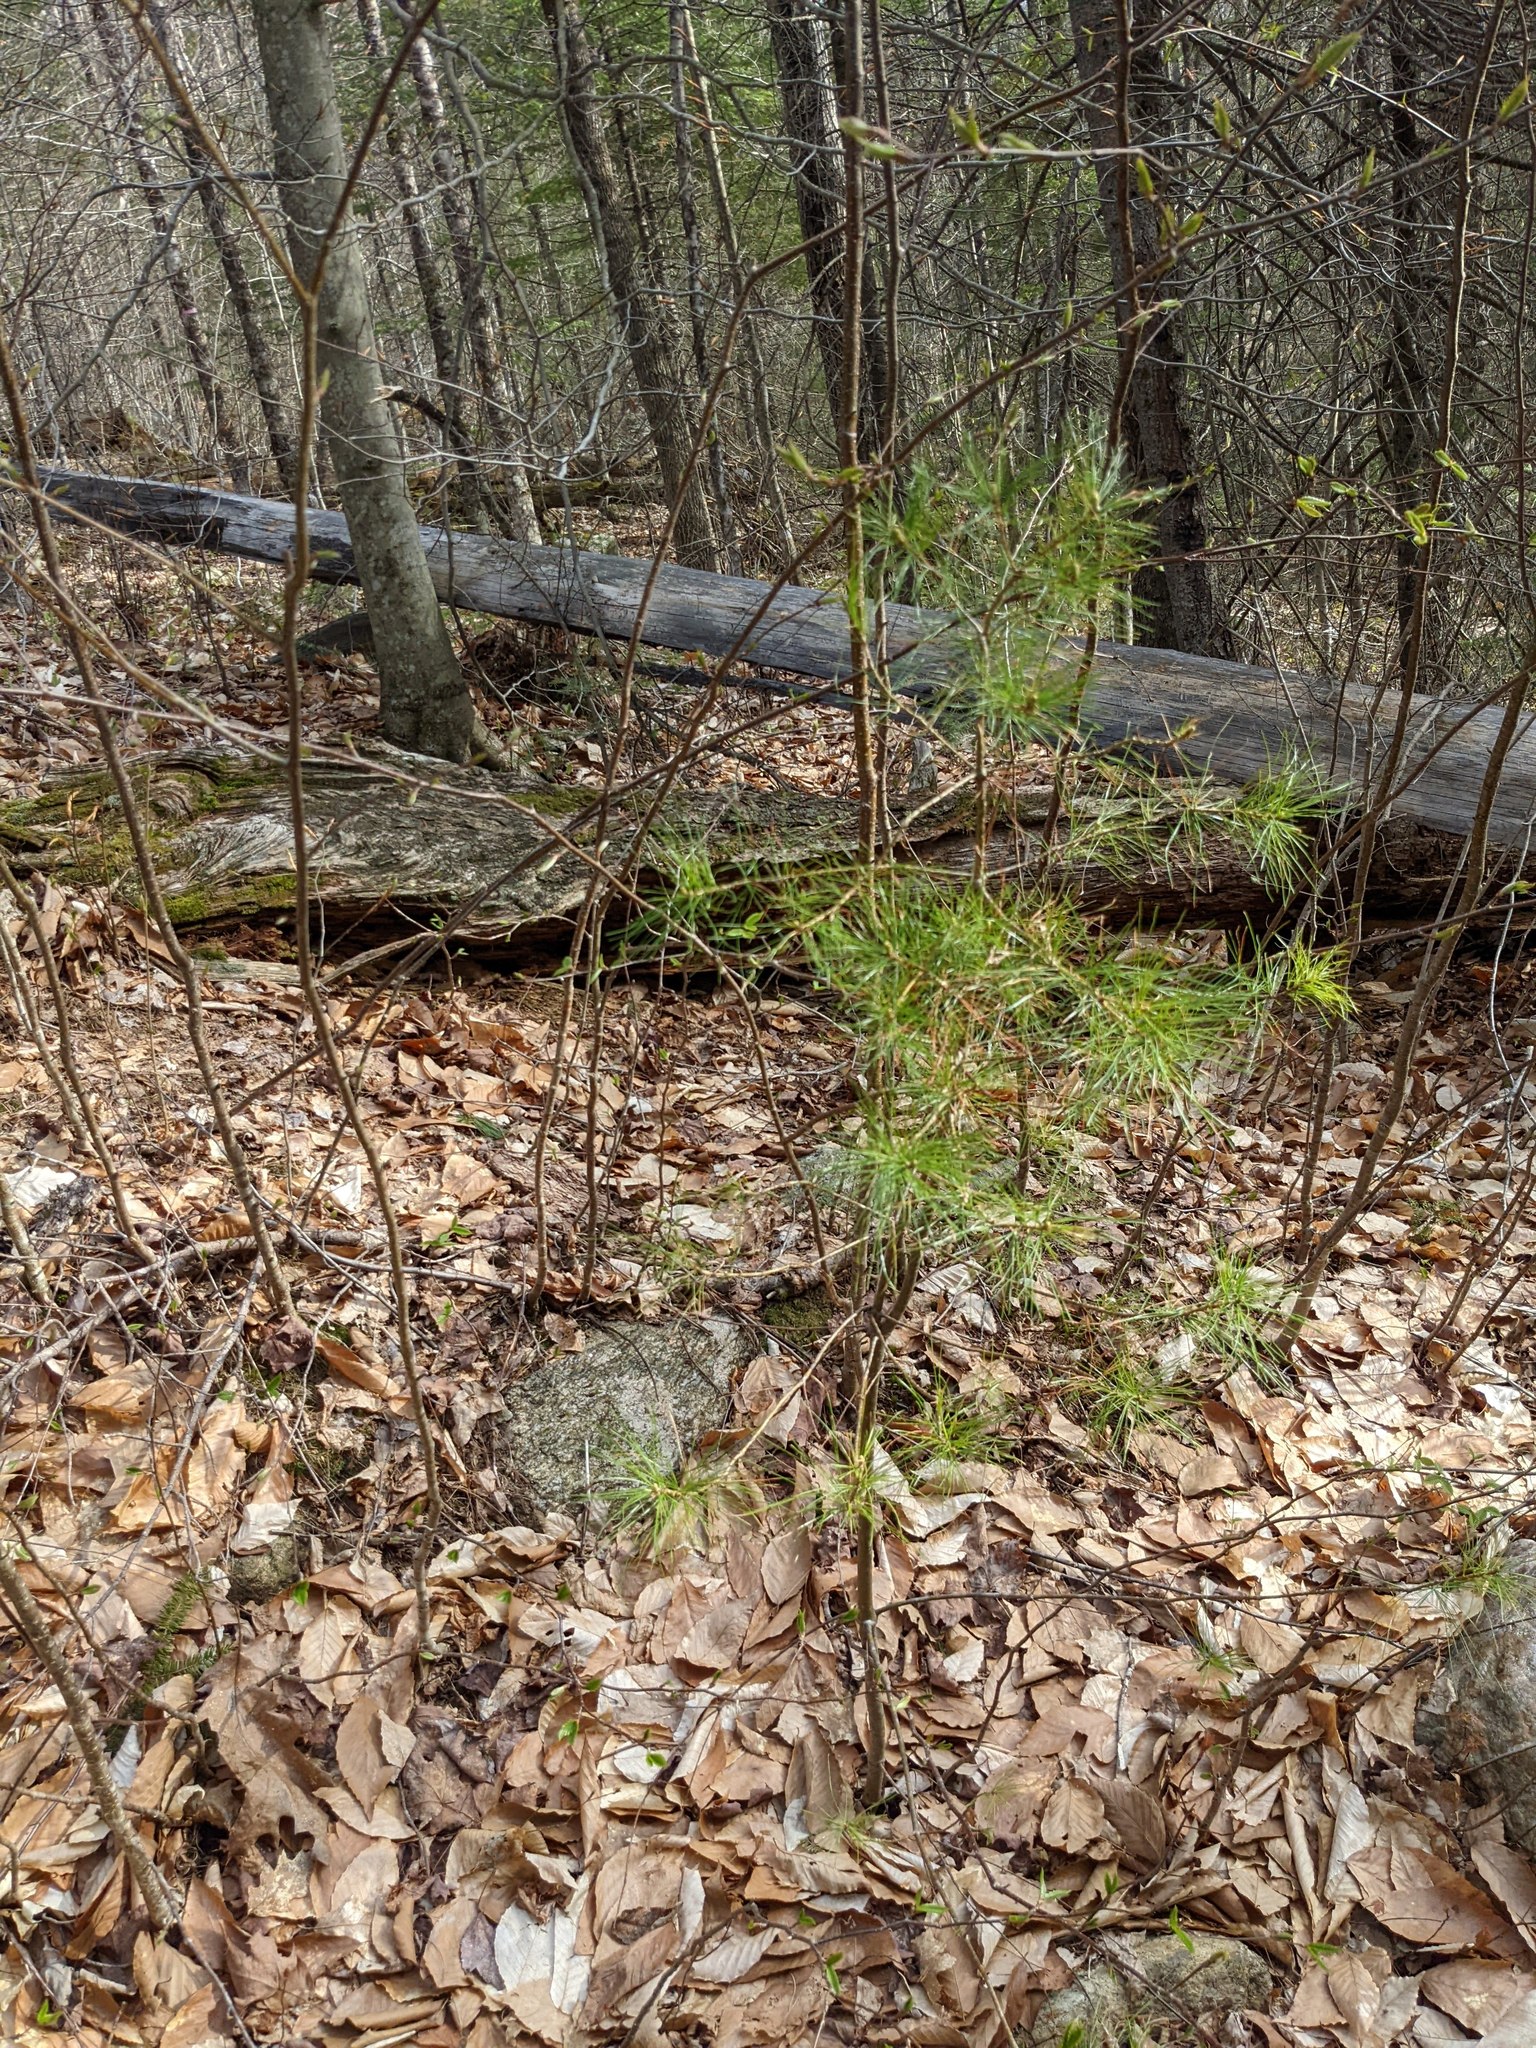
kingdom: Plantae
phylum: Tracheophyta
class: Pinopsida
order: Pinales
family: Pinaceae
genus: Pinus
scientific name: Pinus strobus
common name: Weymouth pine
